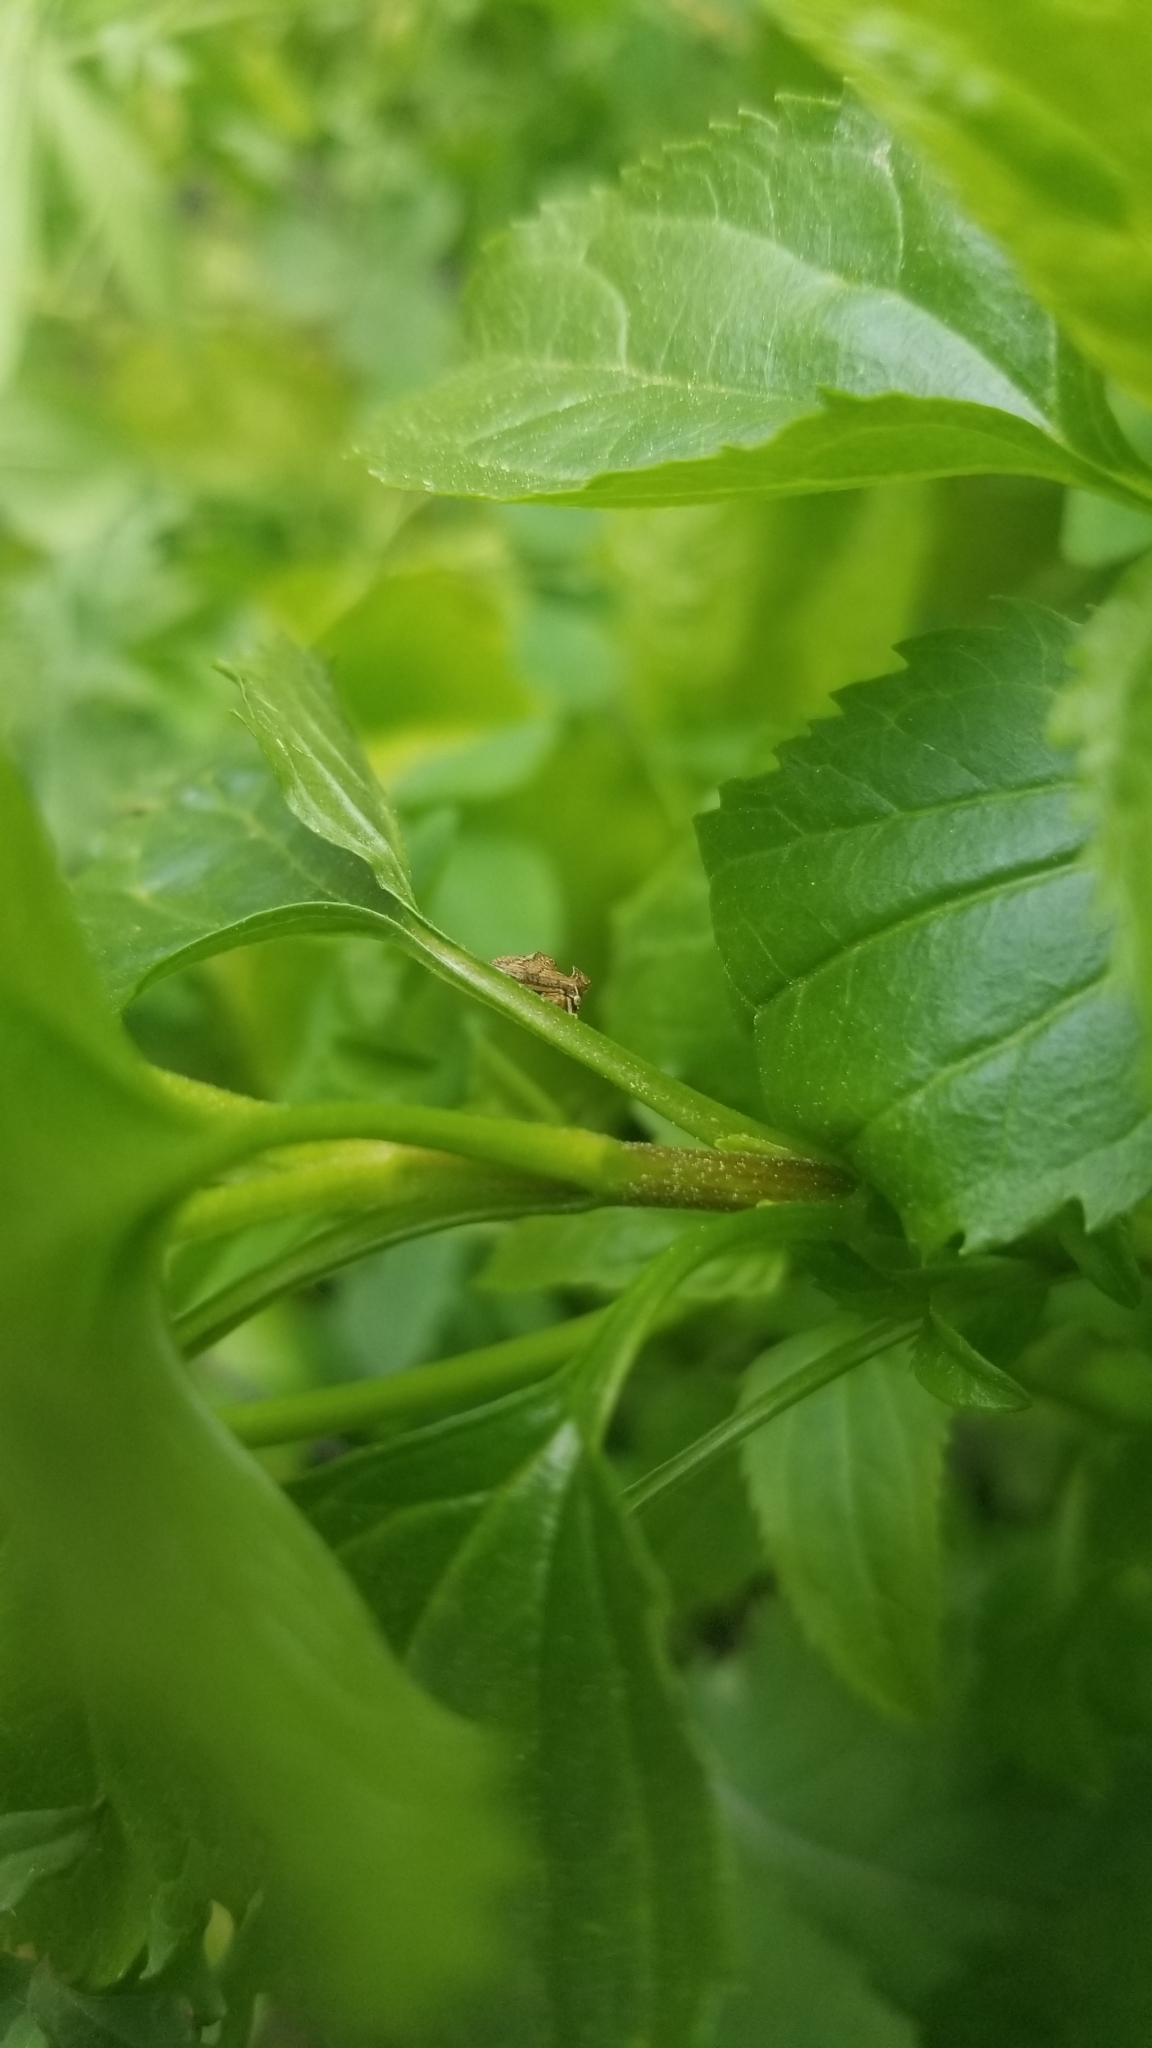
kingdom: Animalia
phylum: Arthropoda
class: Insecta
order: Hemiptera
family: Membracidae
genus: Entylia
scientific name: Entylia carinata
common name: Keeled treehopper
